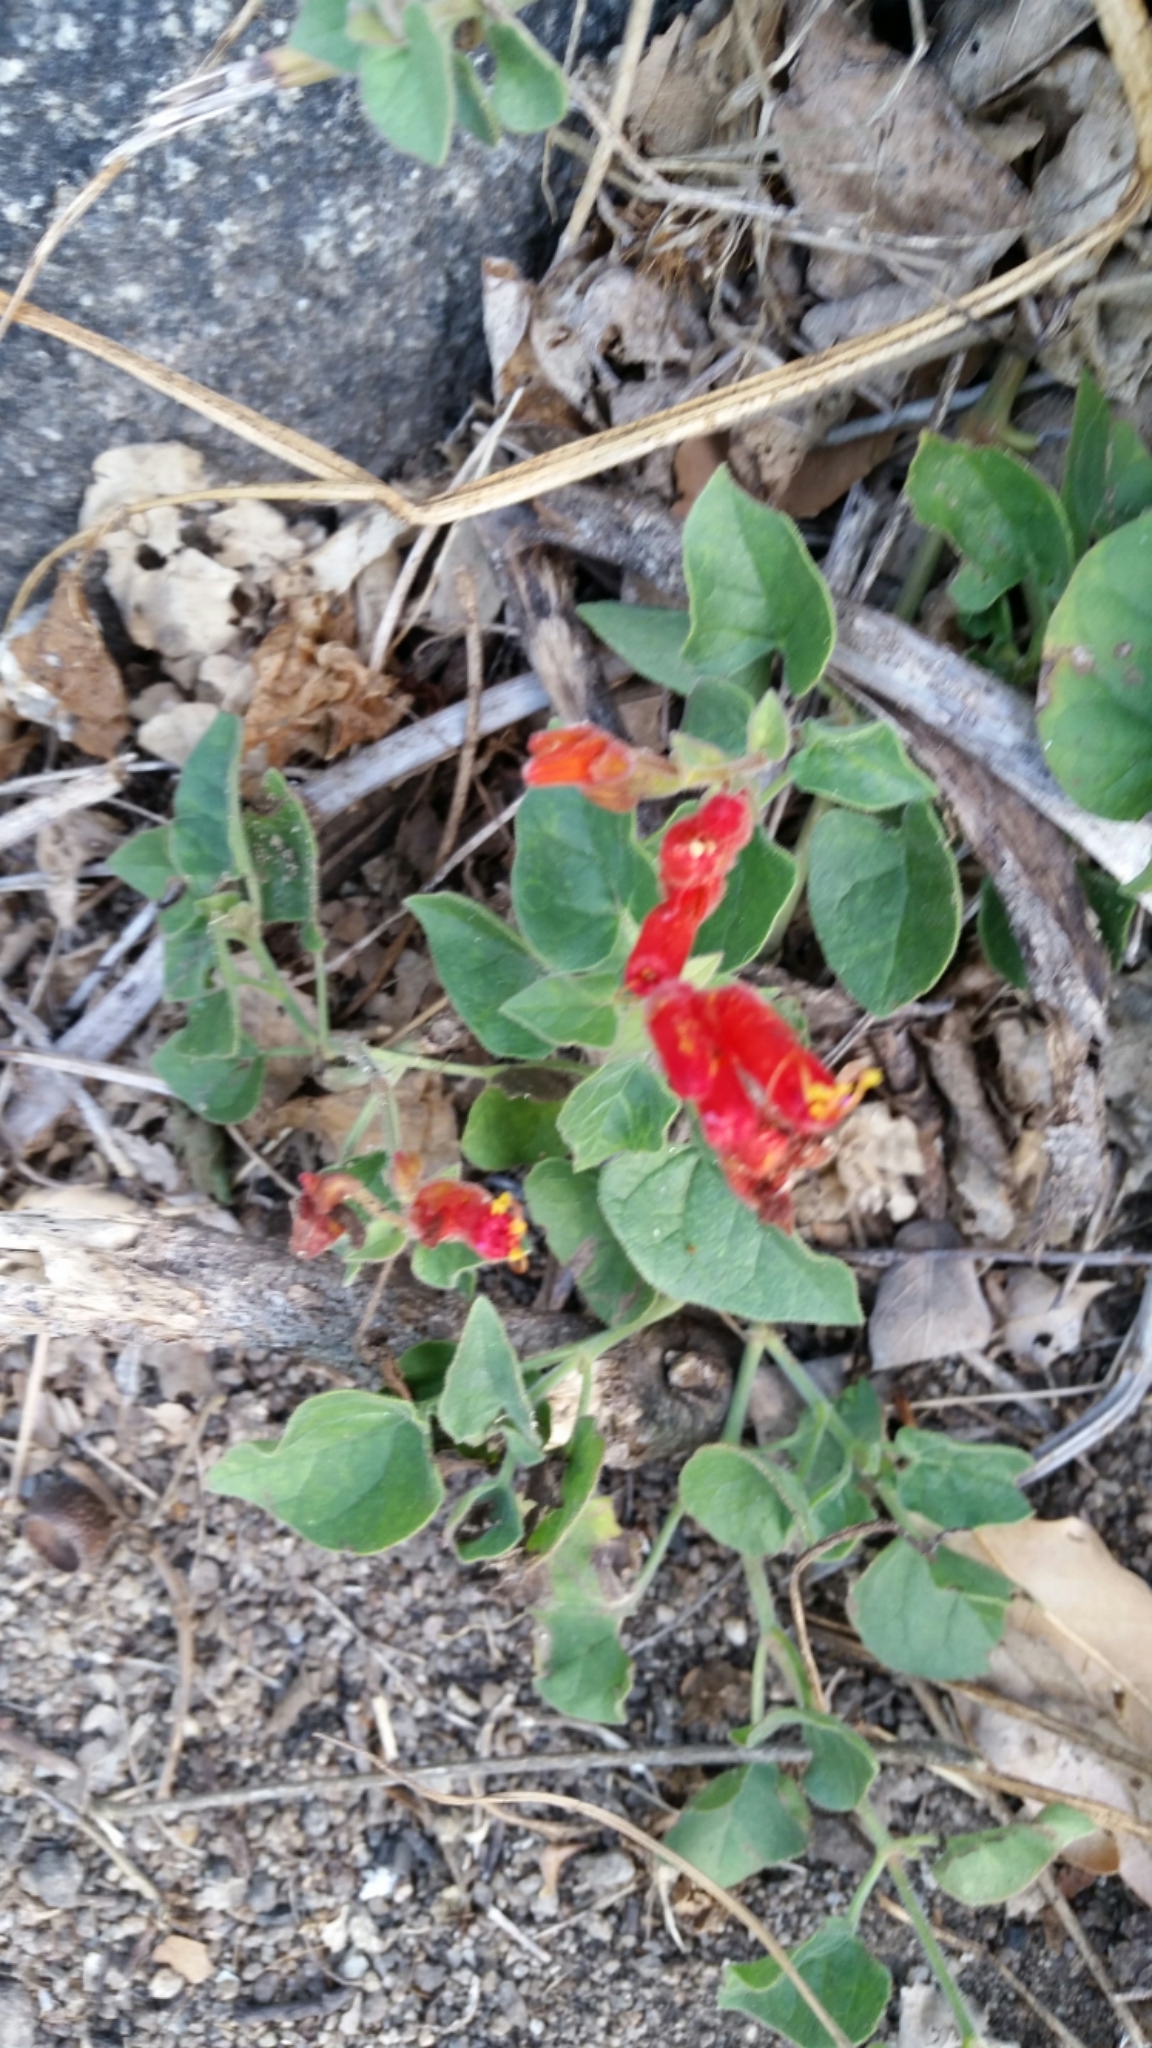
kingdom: Plantae
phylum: Tracheophyta
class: Magnoliopsida
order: Caryophyllales
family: Nyctaginaceae
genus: Mirabilis
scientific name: Mirabilis triflora
